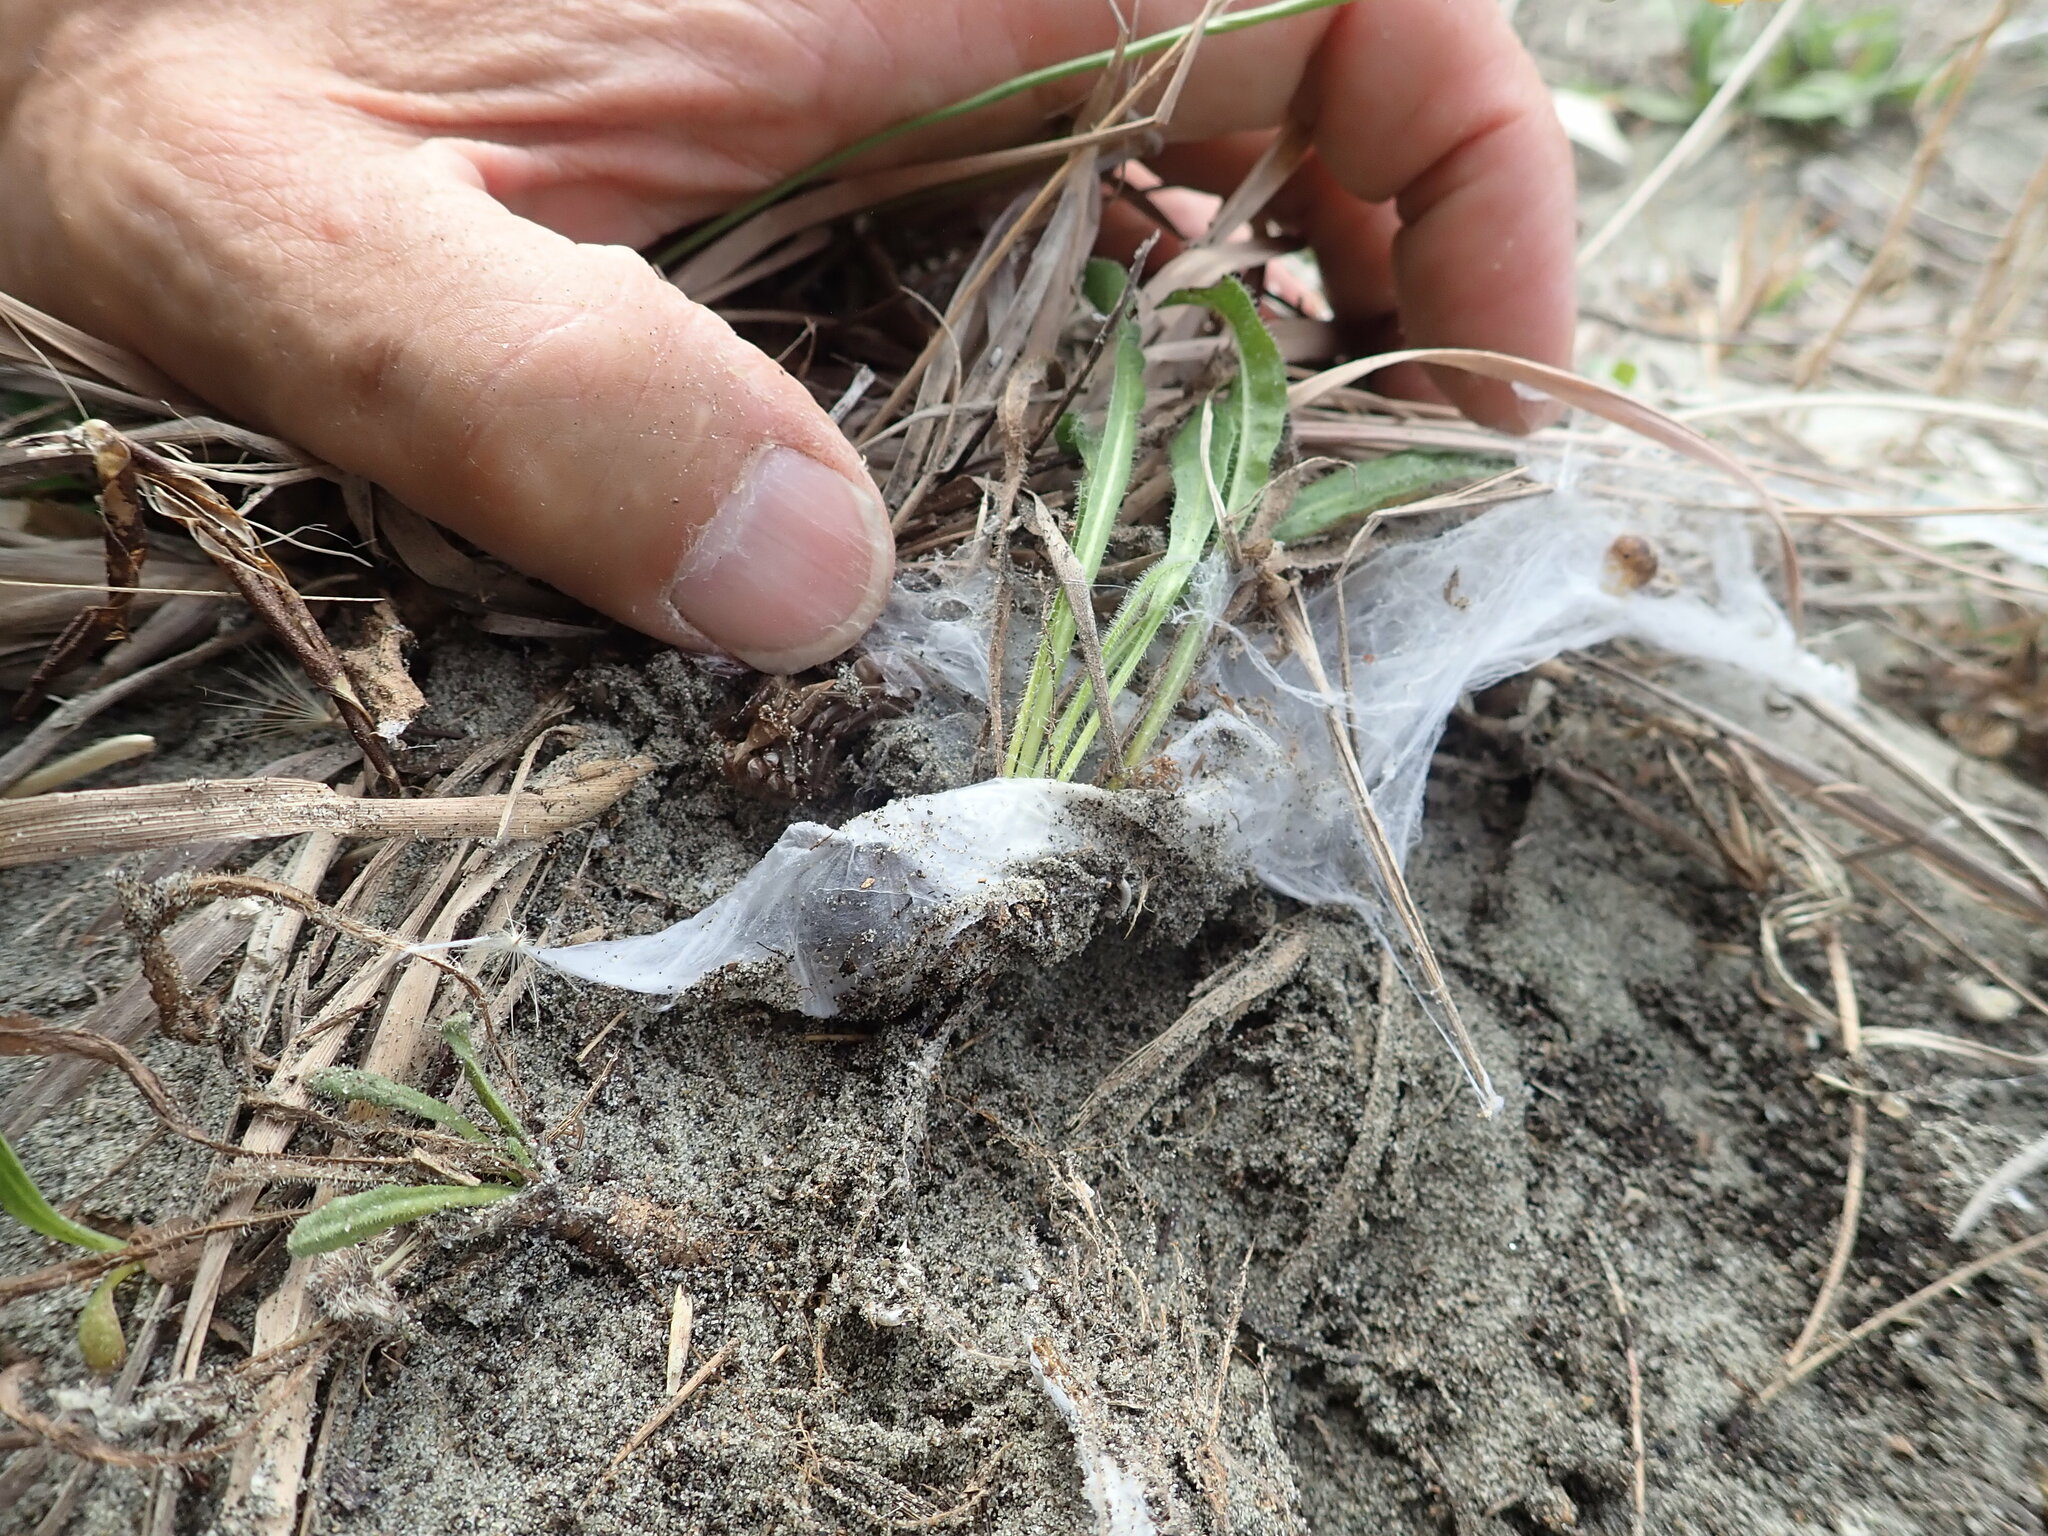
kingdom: Animalia
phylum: Arthropoda
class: Arachnida
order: Araneae
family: Porrhothelidae
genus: Porrhothele
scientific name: Porrhothele antipodiana
